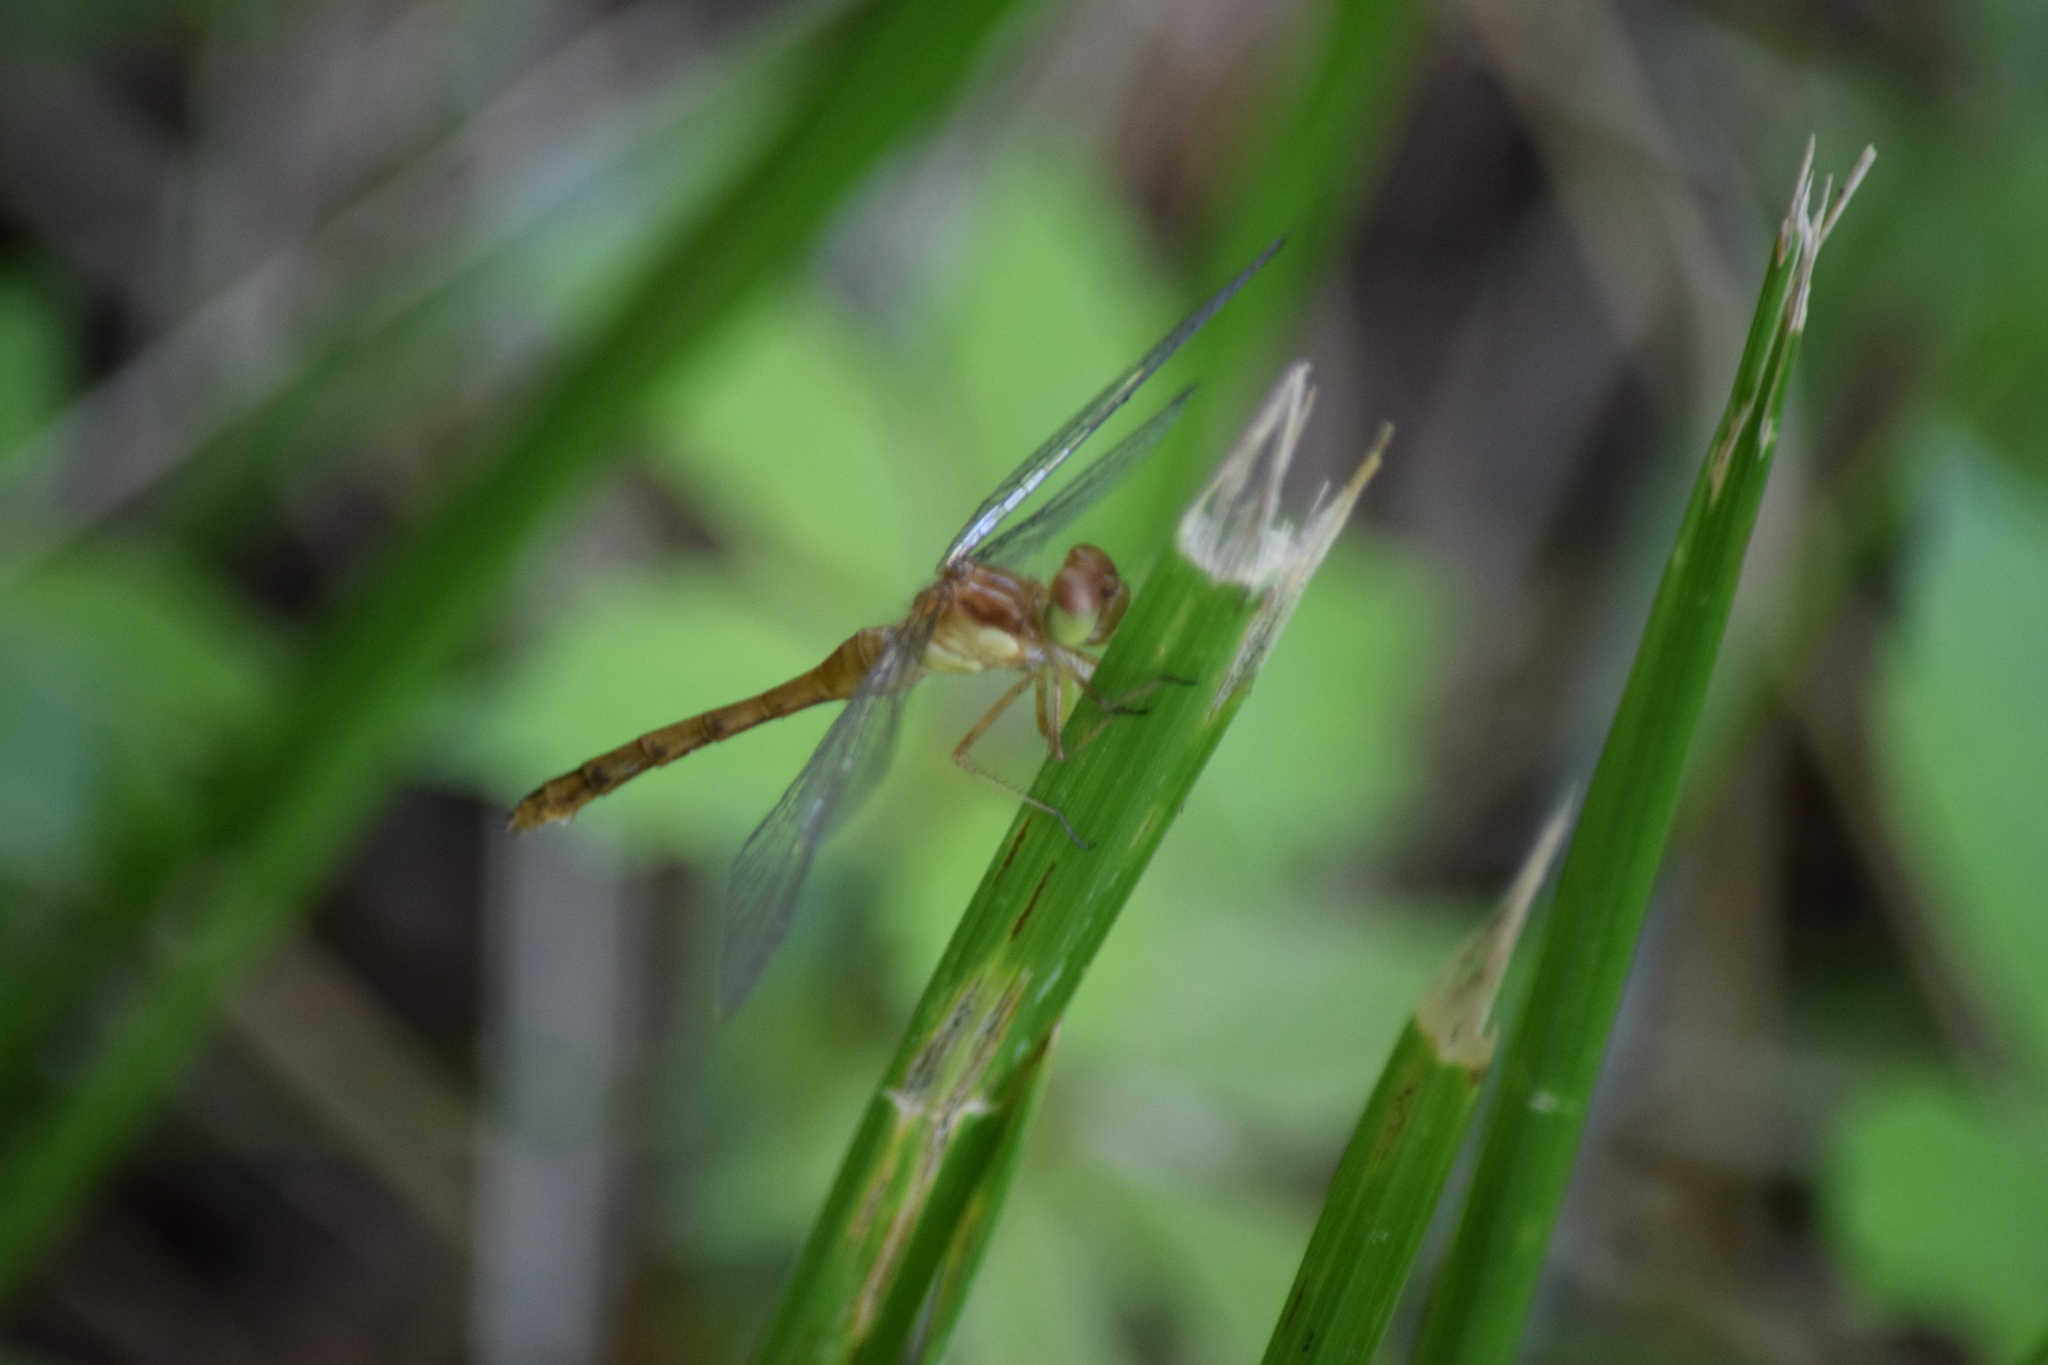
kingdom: Animalia
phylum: Arthropoda
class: Insecta
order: Odonata
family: Libellulidae
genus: Sympetrum
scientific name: Sympetrum vicinum
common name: Autumn meadowhawk
